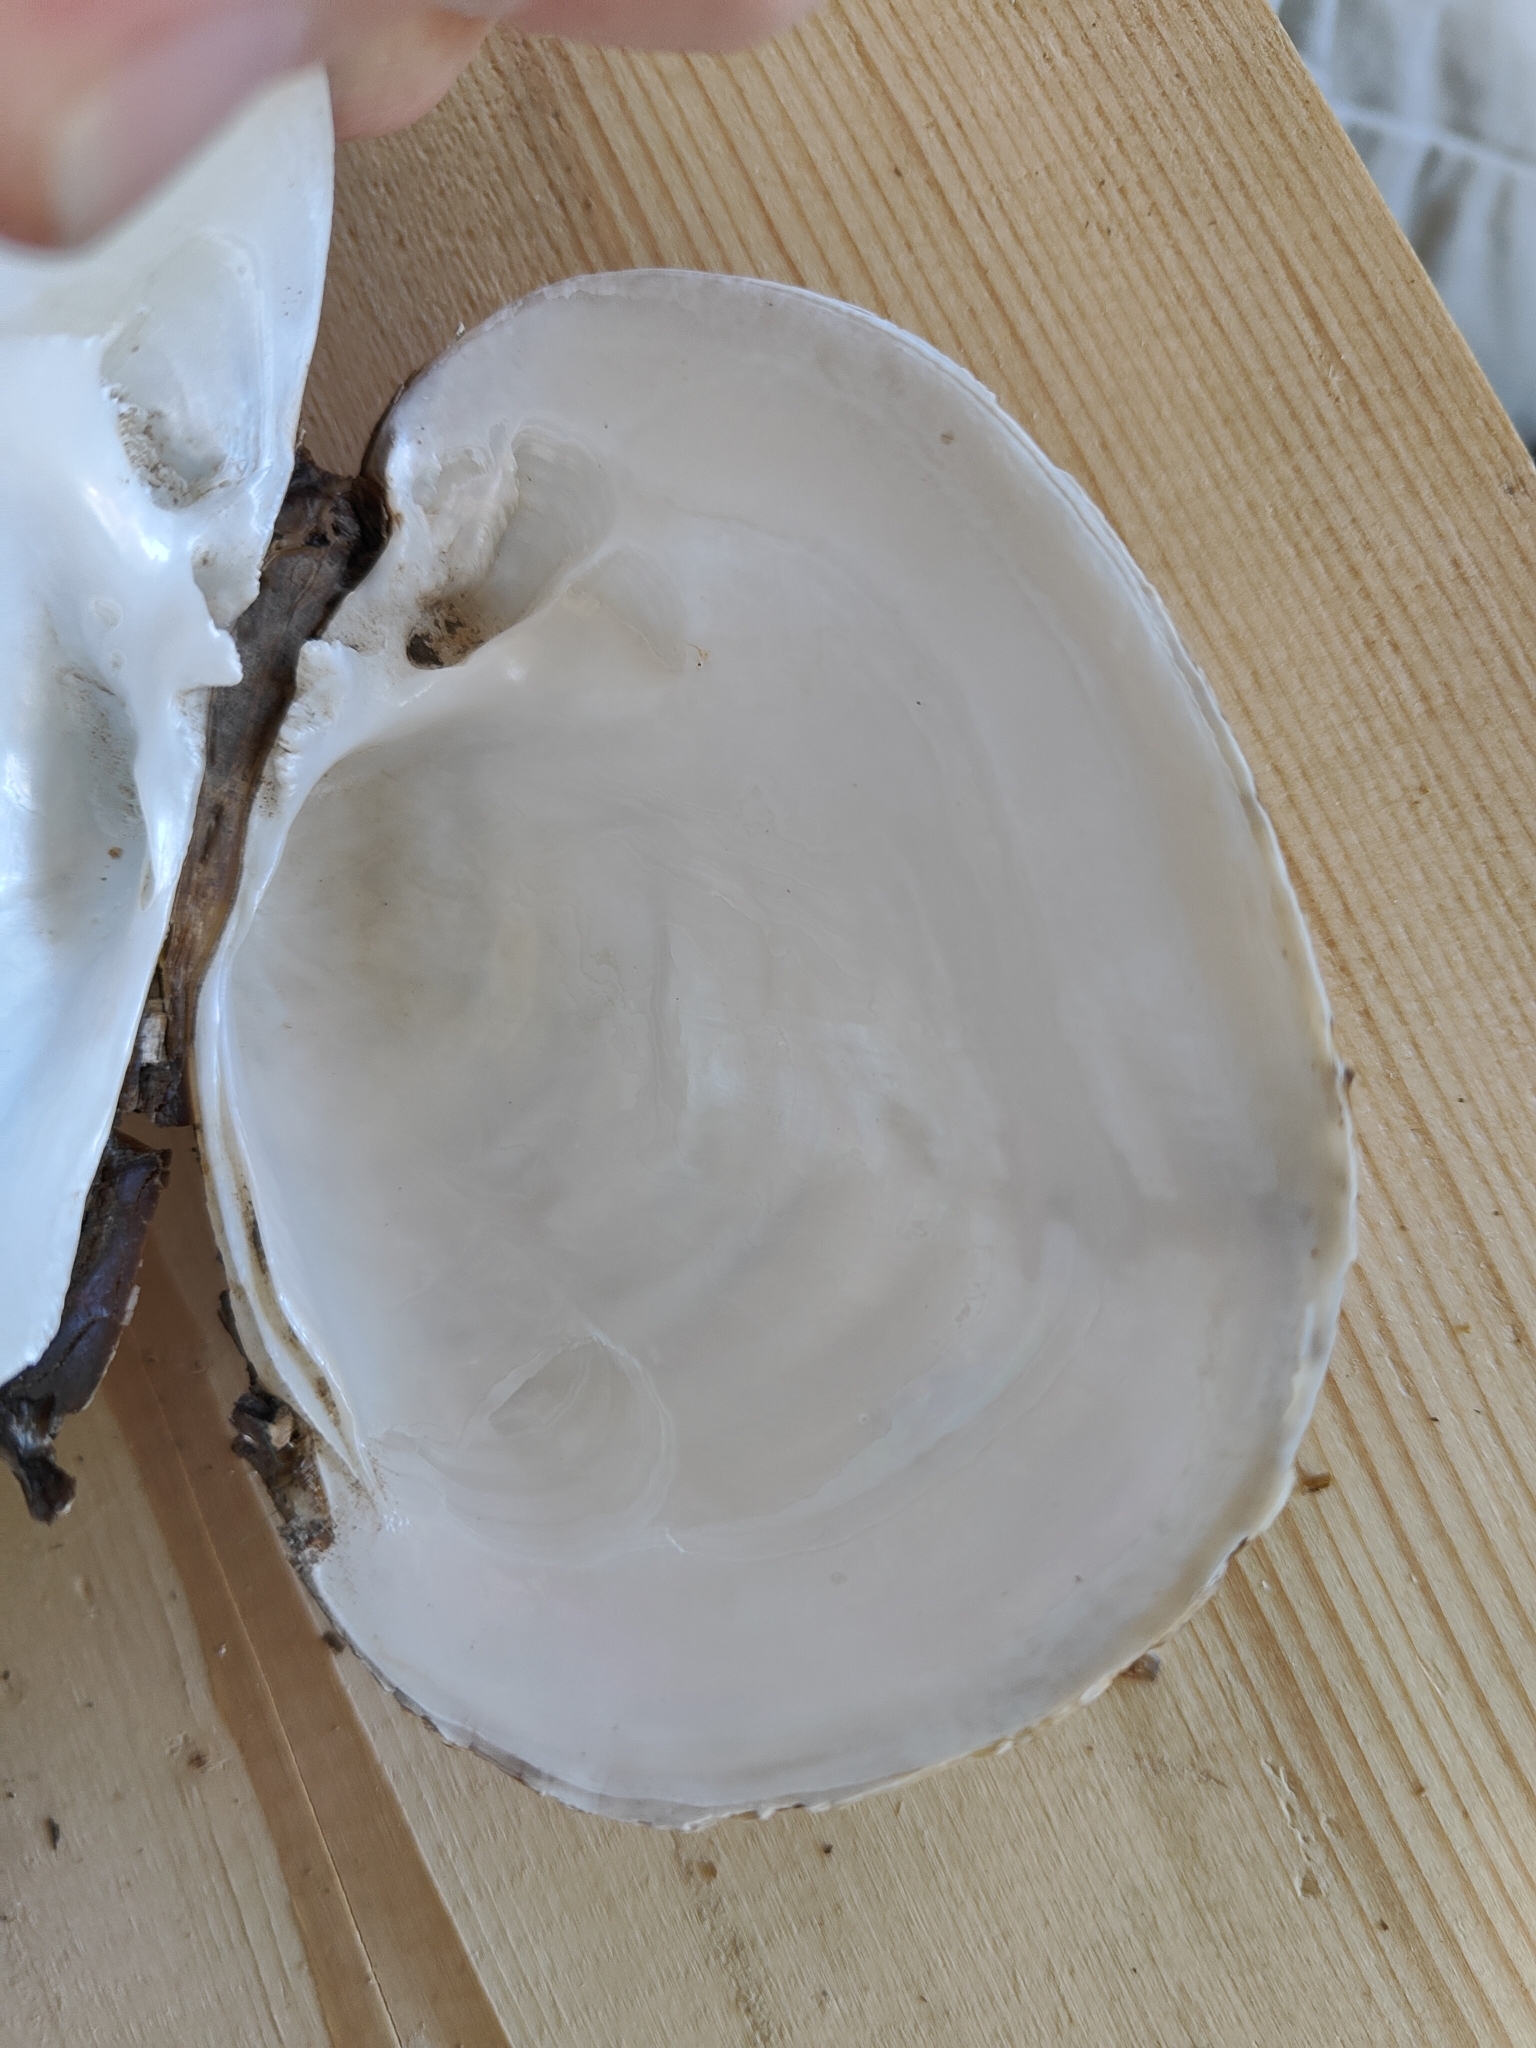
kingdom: Animalia
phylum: Mollusca
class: Bivalvia
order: Unionida
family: Unionidae
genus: Lampsilis
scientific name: Lampsilis cardium
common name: Plain pocketbook
